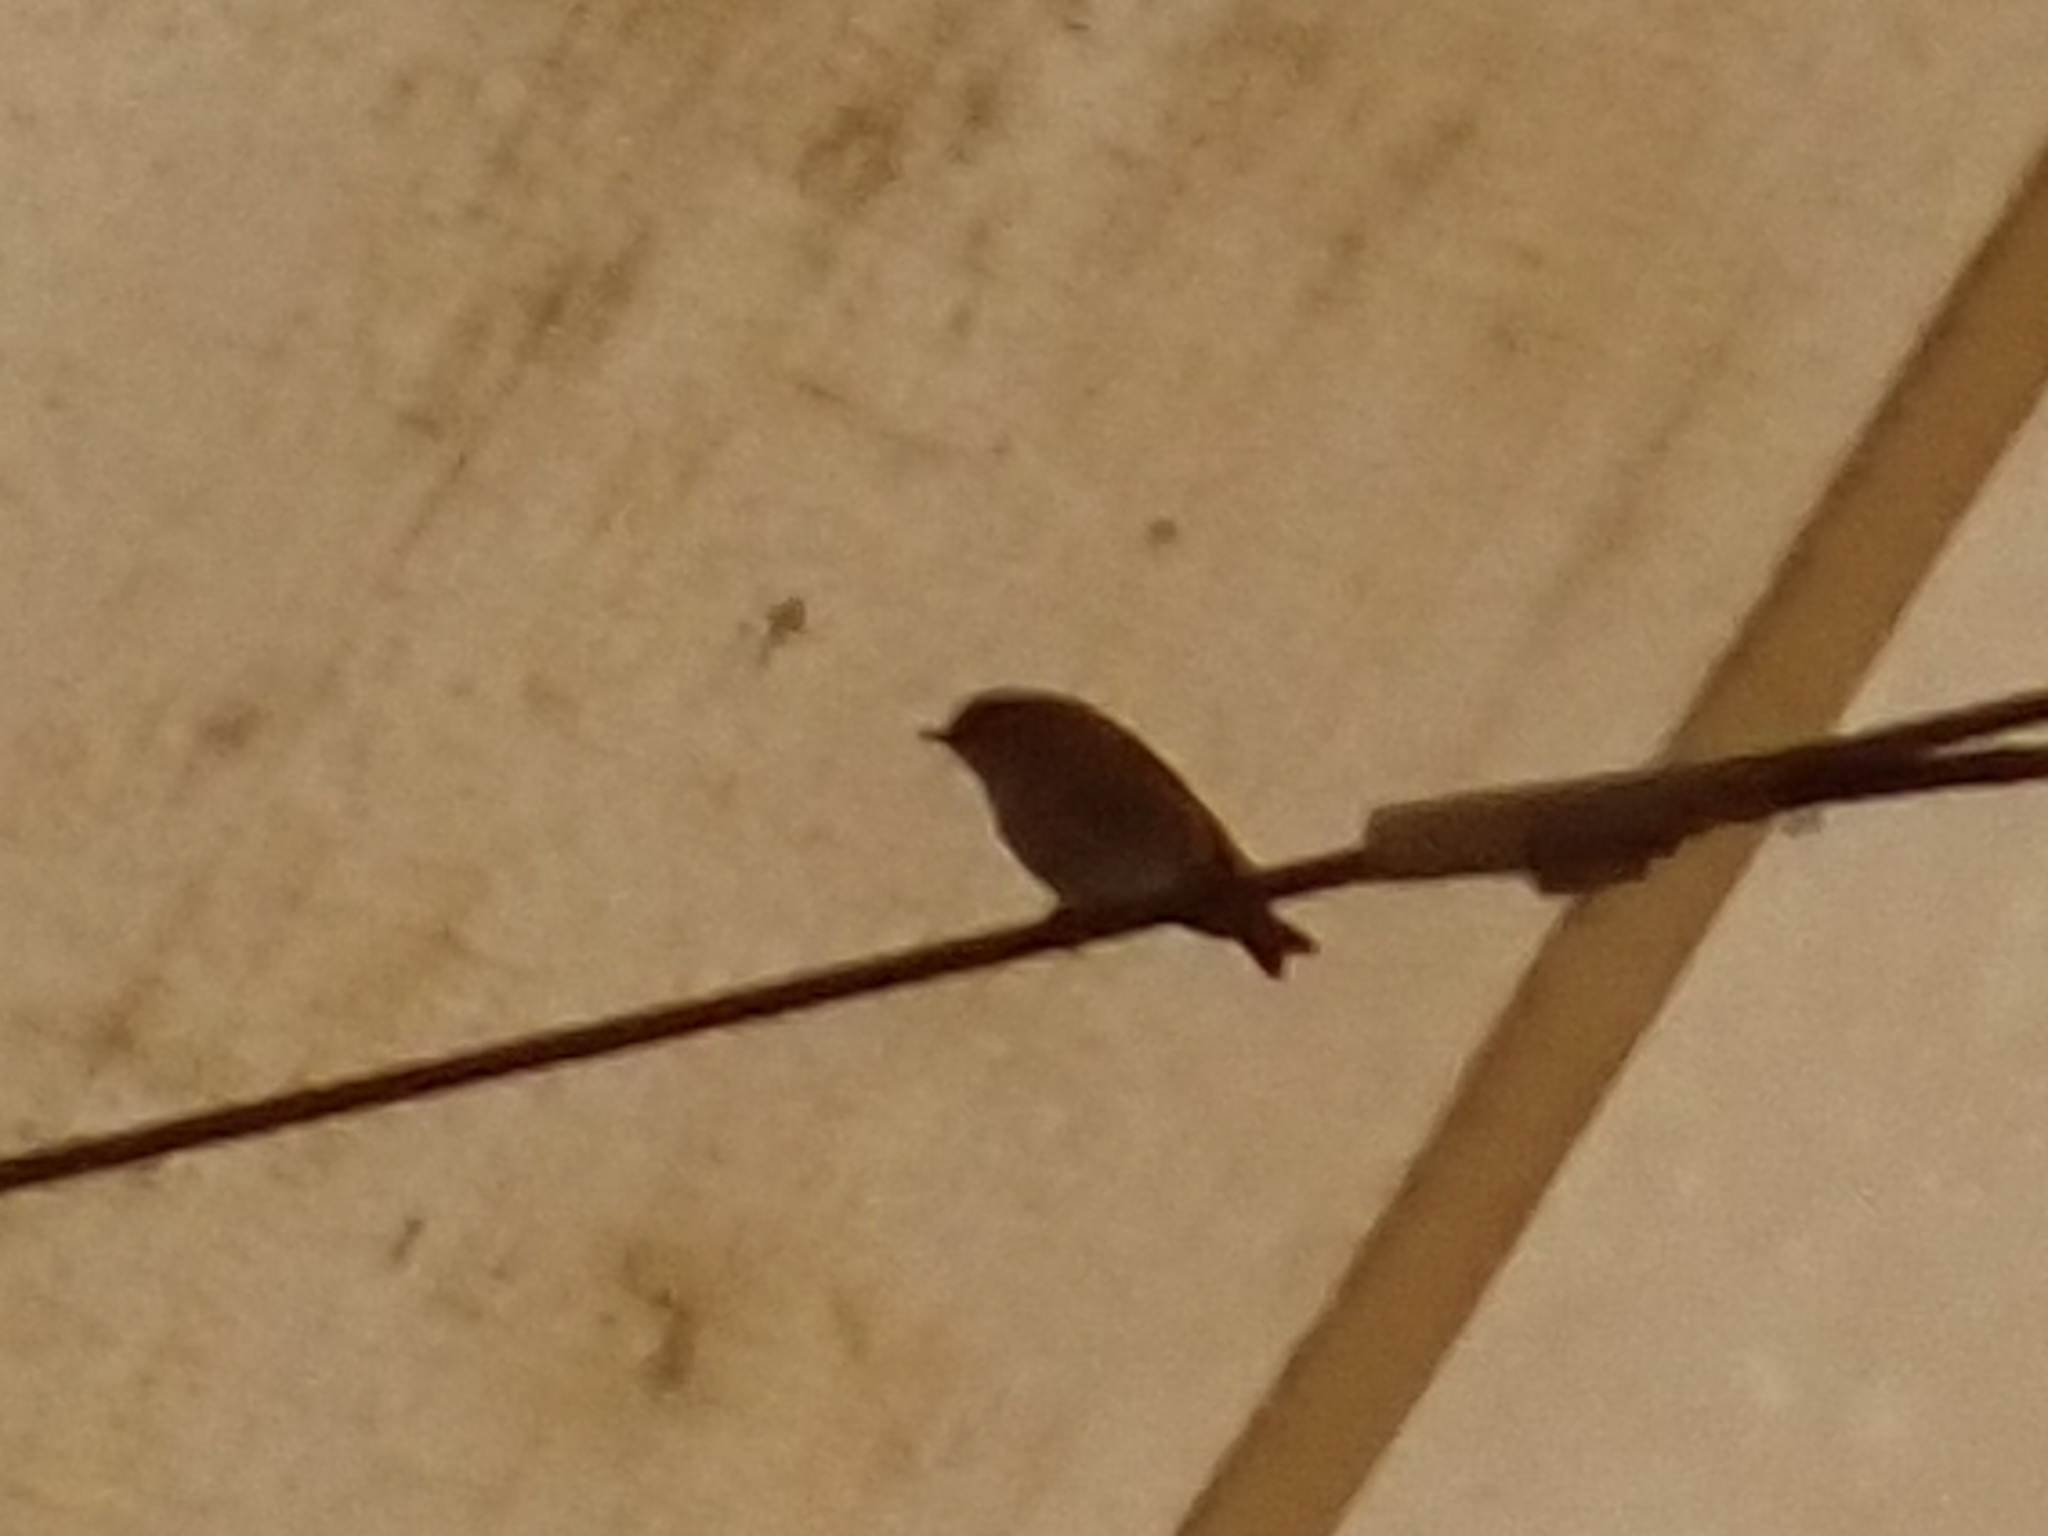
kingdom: Animalia
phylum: Chordata
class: Aves
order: Passeriformes
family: Regulidae
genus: Regulus
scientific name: Regulus satrapa
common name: Golden-crowned kinglet
